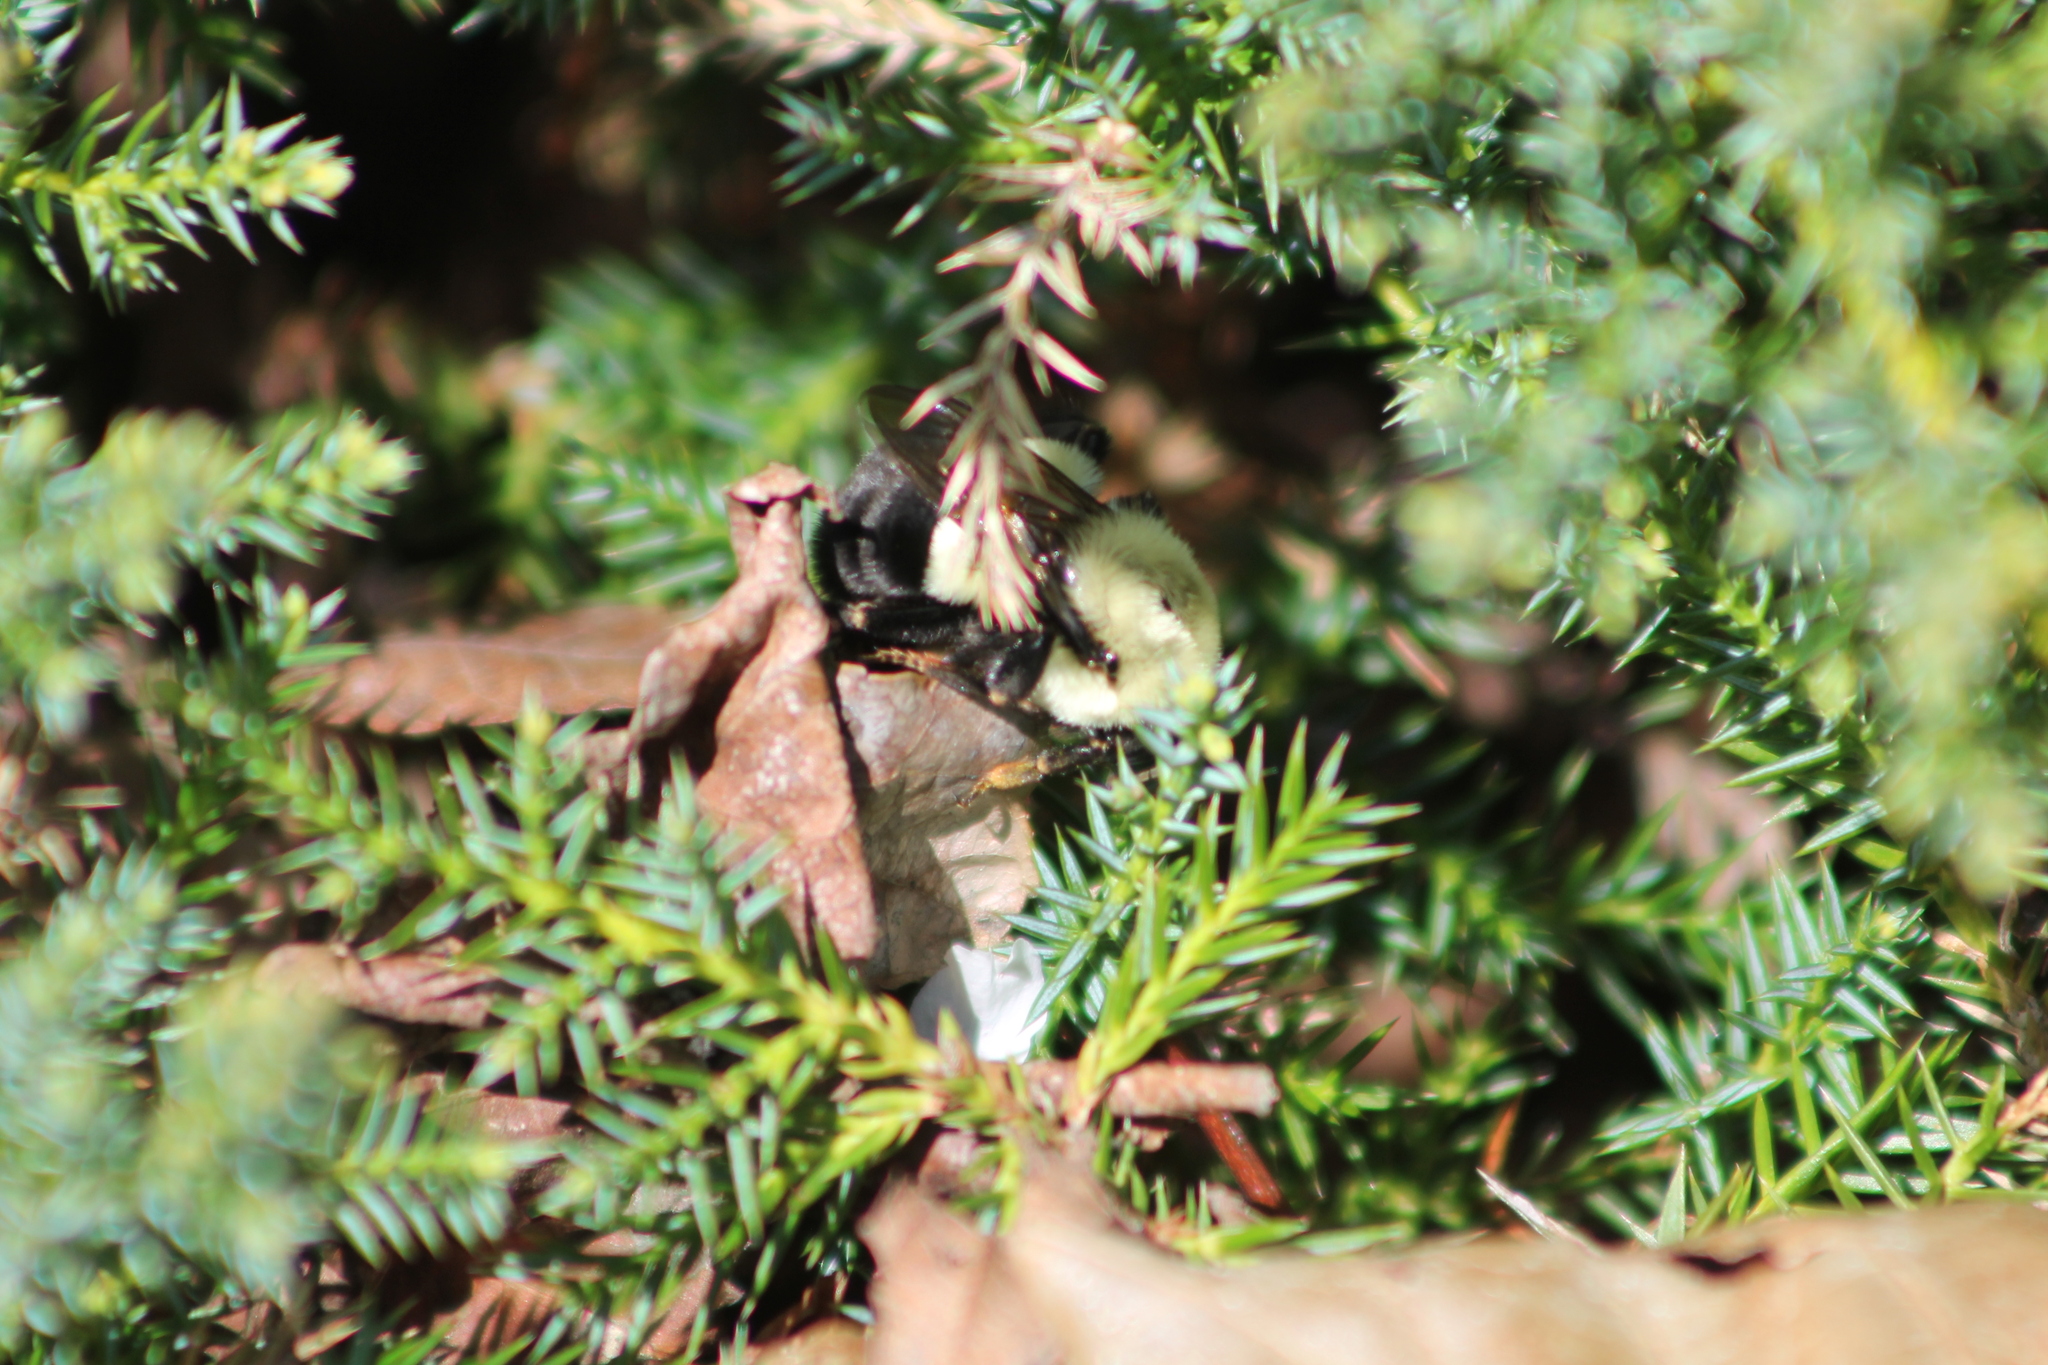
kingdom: Animalia
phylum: Arthropoda
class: Insecta
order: Hymenoptera
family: Apidae
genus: Bombus
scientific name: Bombus impatiens
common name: Common eastern bumble bee
